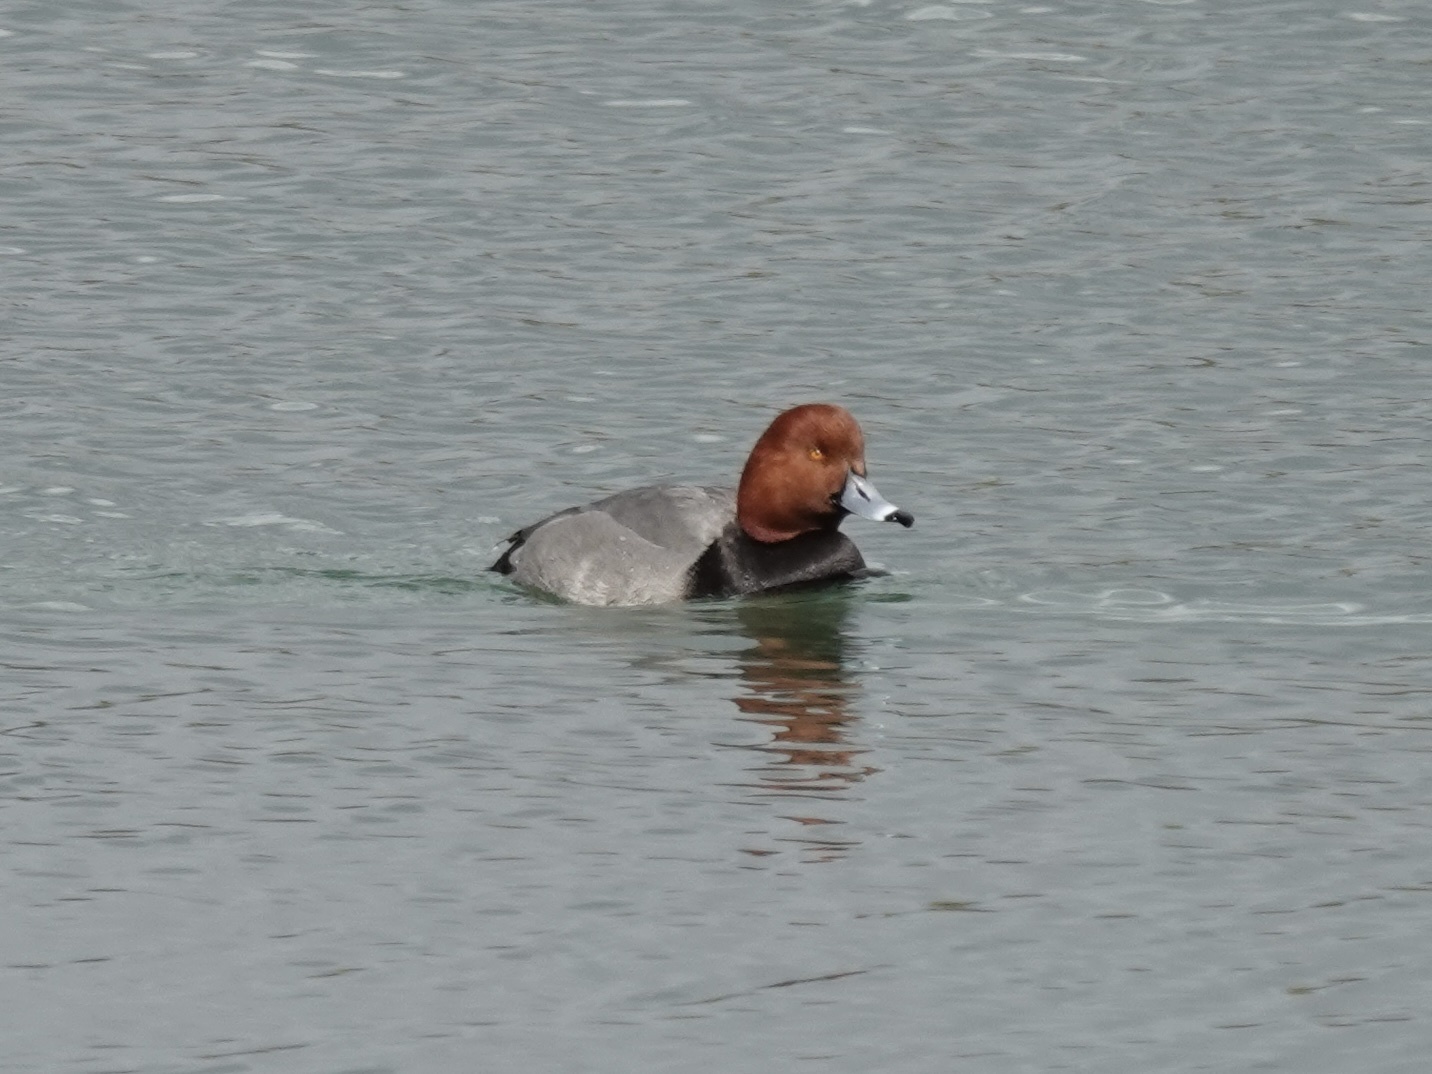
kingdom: Animalia
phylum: Chordata
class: Aves
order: Anseriformes
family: Anatidae
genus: Aythya
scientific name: Aythya americana
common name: Redhead
